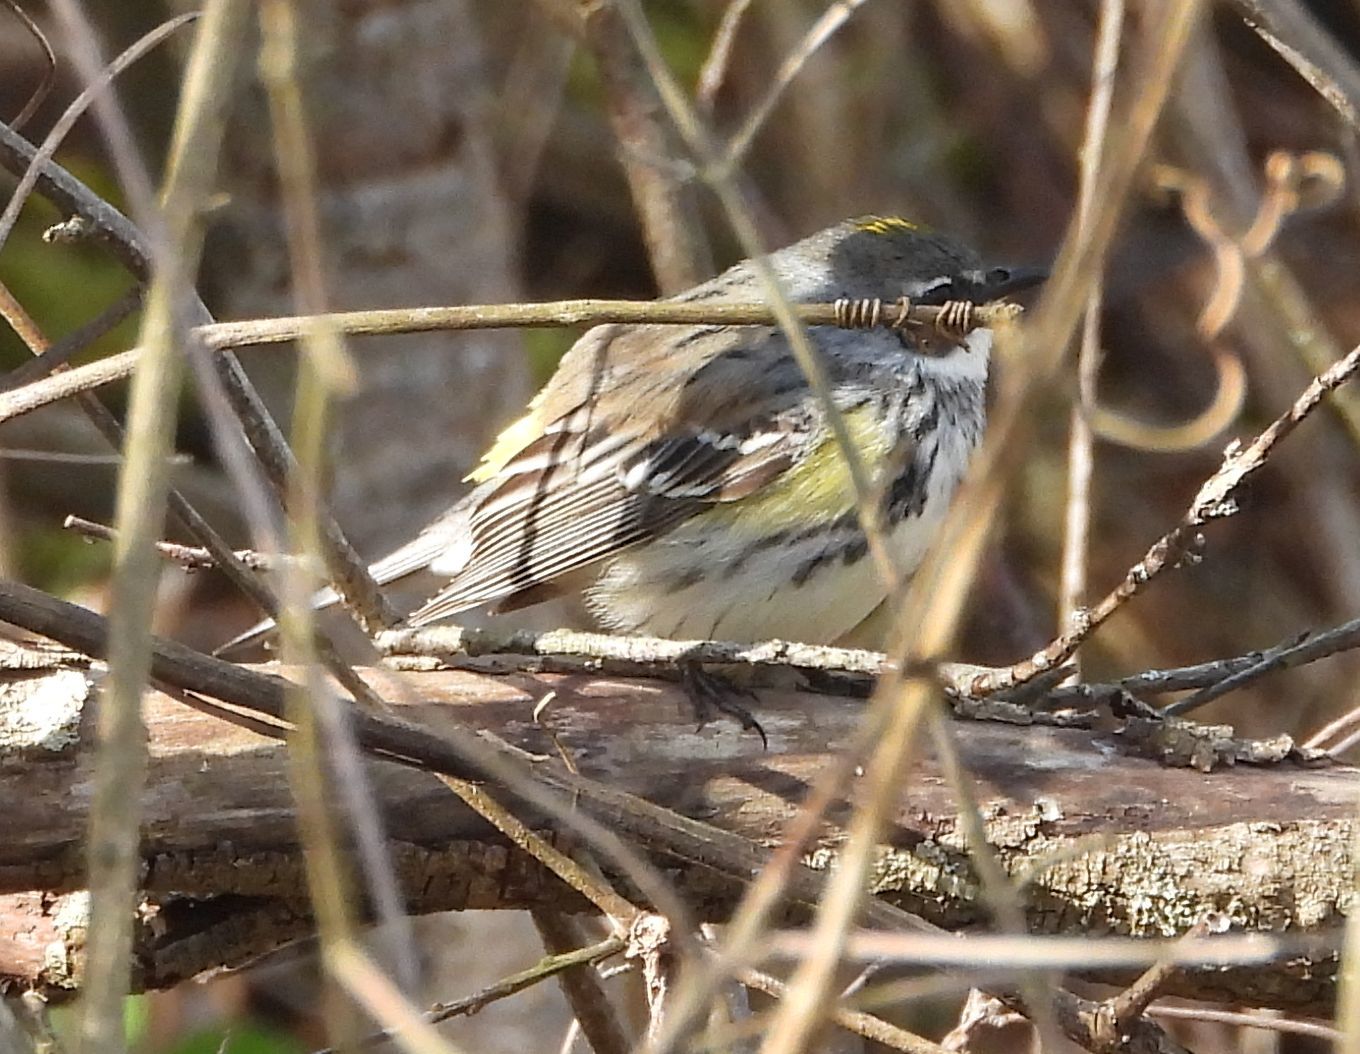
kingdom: Animalia
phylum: Chordata
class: Aves
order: Passeriformes
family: Parulidae
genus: Setophaga
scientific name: Setophaga coronata
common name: Myrtle warbler
